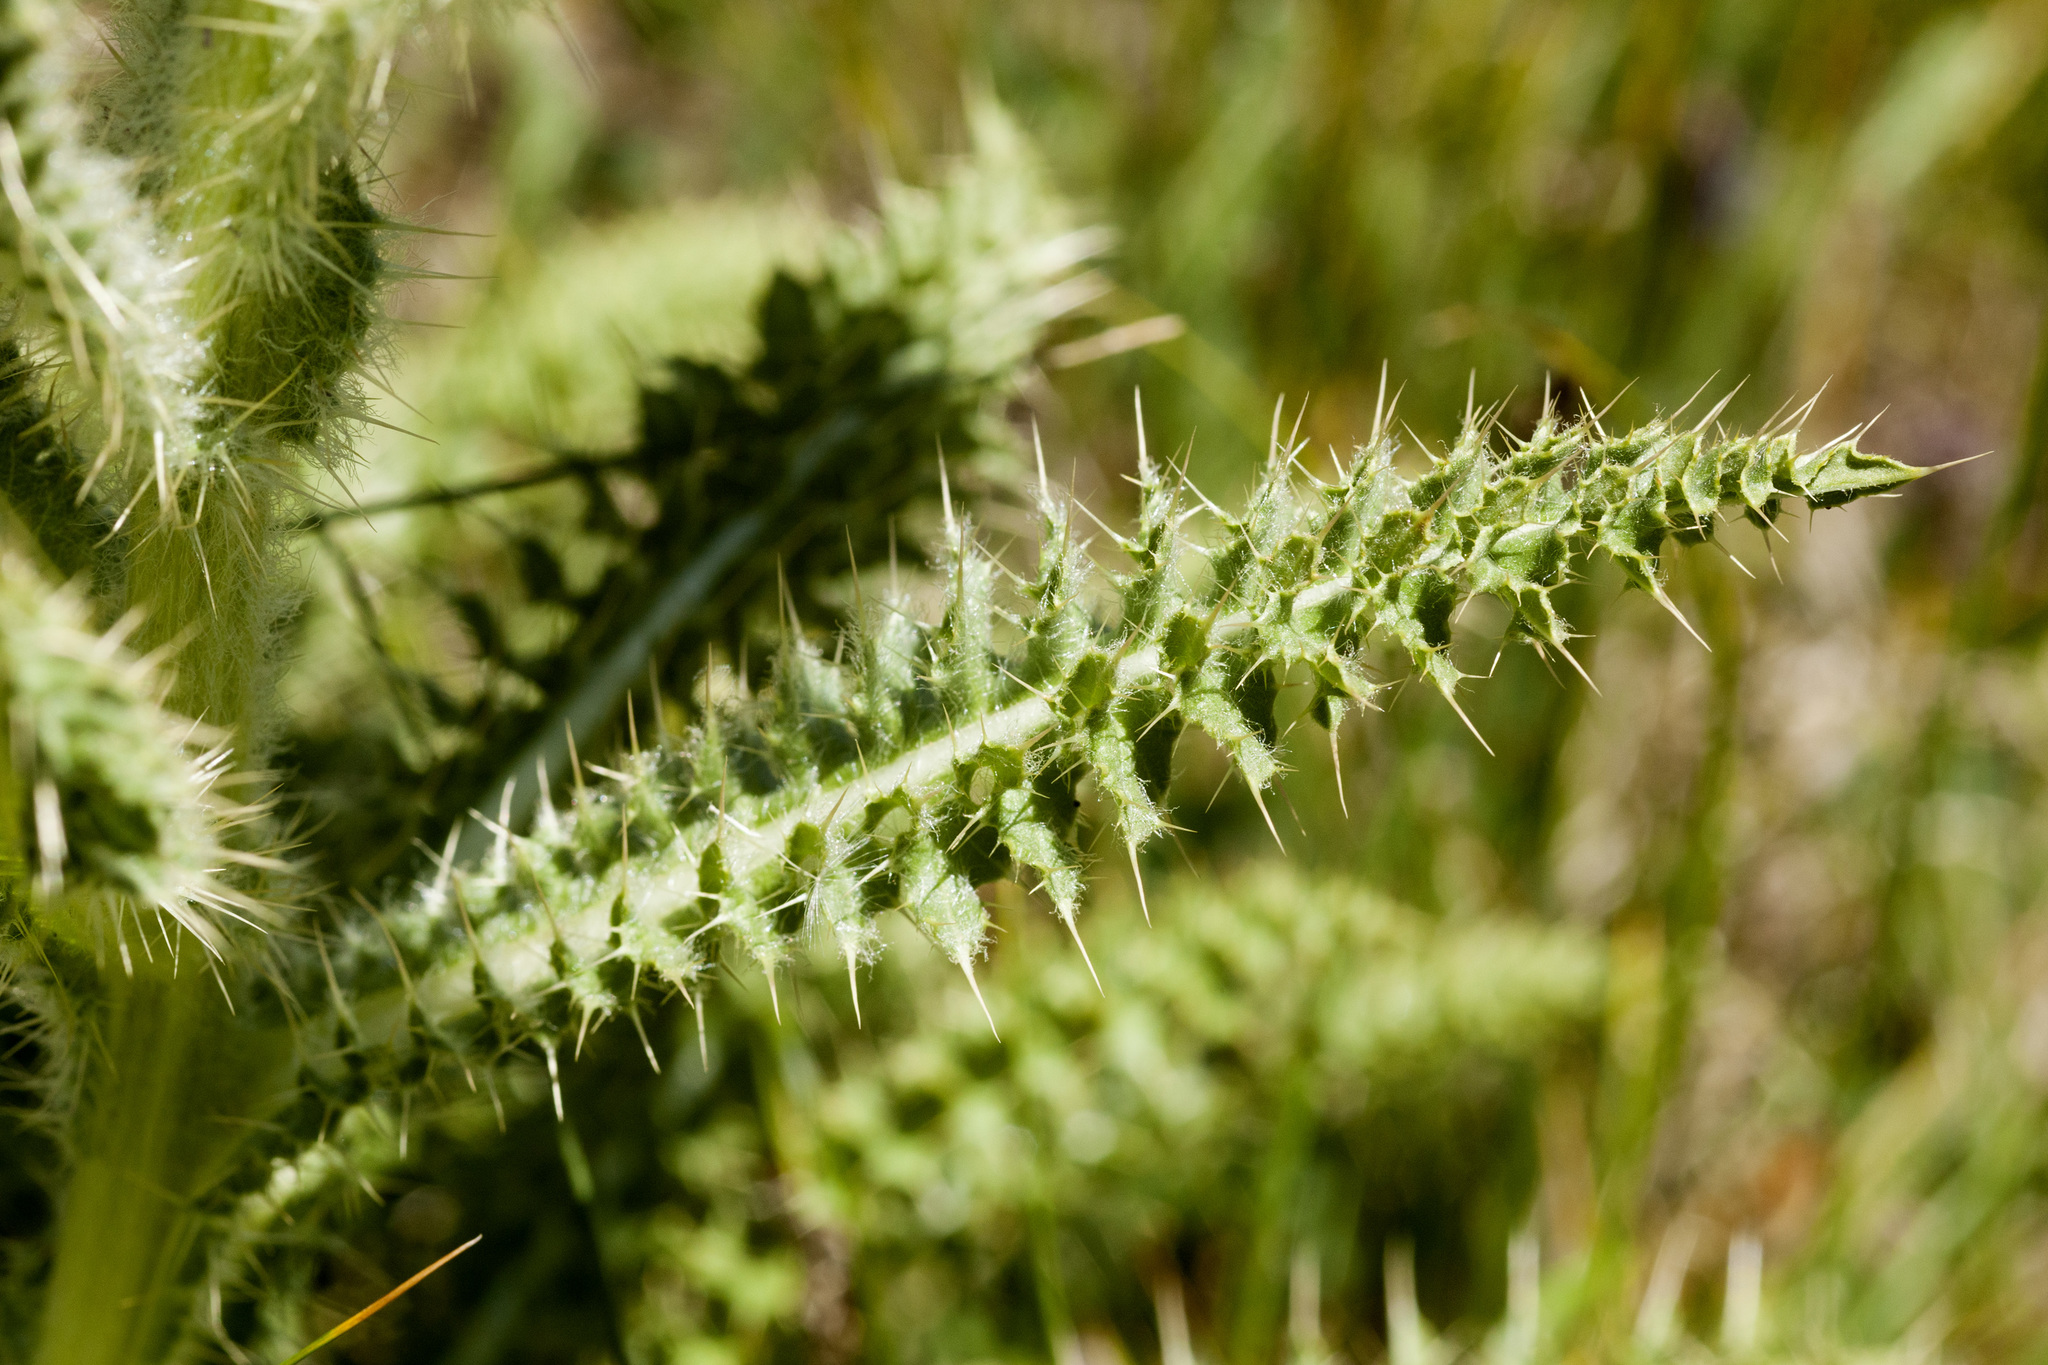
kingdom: Plantae
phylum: Tracheophyta
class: Magnoliopsida
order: Asterales
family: Asteraceae
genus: Cirsium
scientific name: Cirsium funkiae
